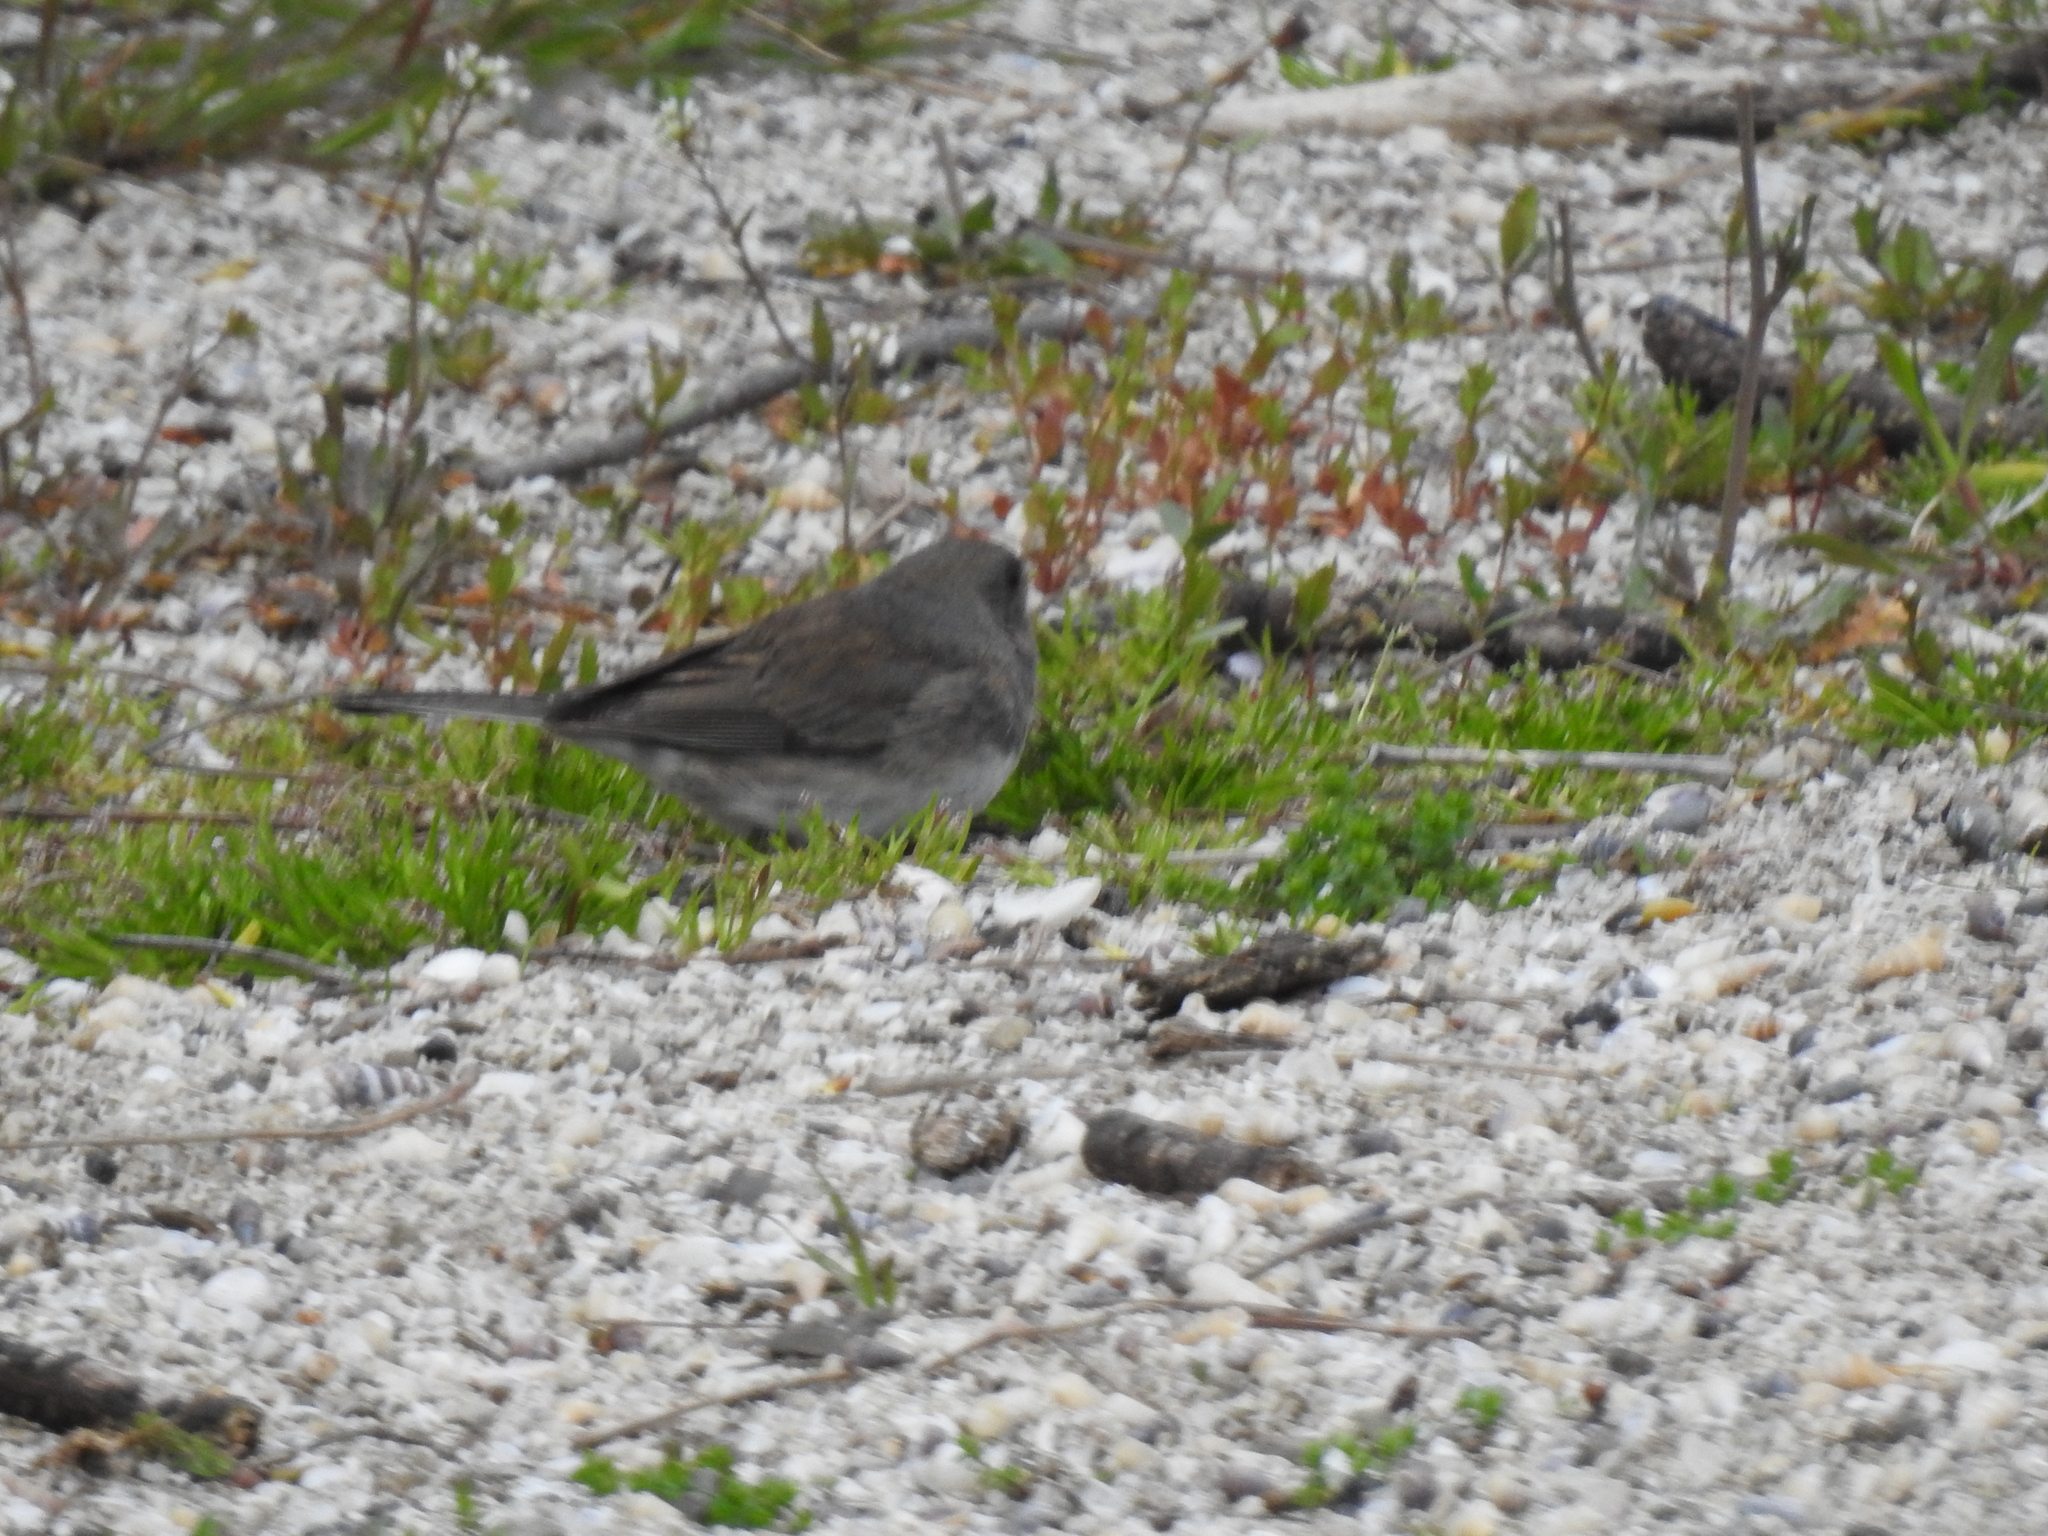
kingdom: Animalia
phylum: Chordata
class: Aves
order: Passeriformes
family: Passerellidae
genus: Junco
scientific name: Junco hyemalis
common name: Dark-eyed junco
